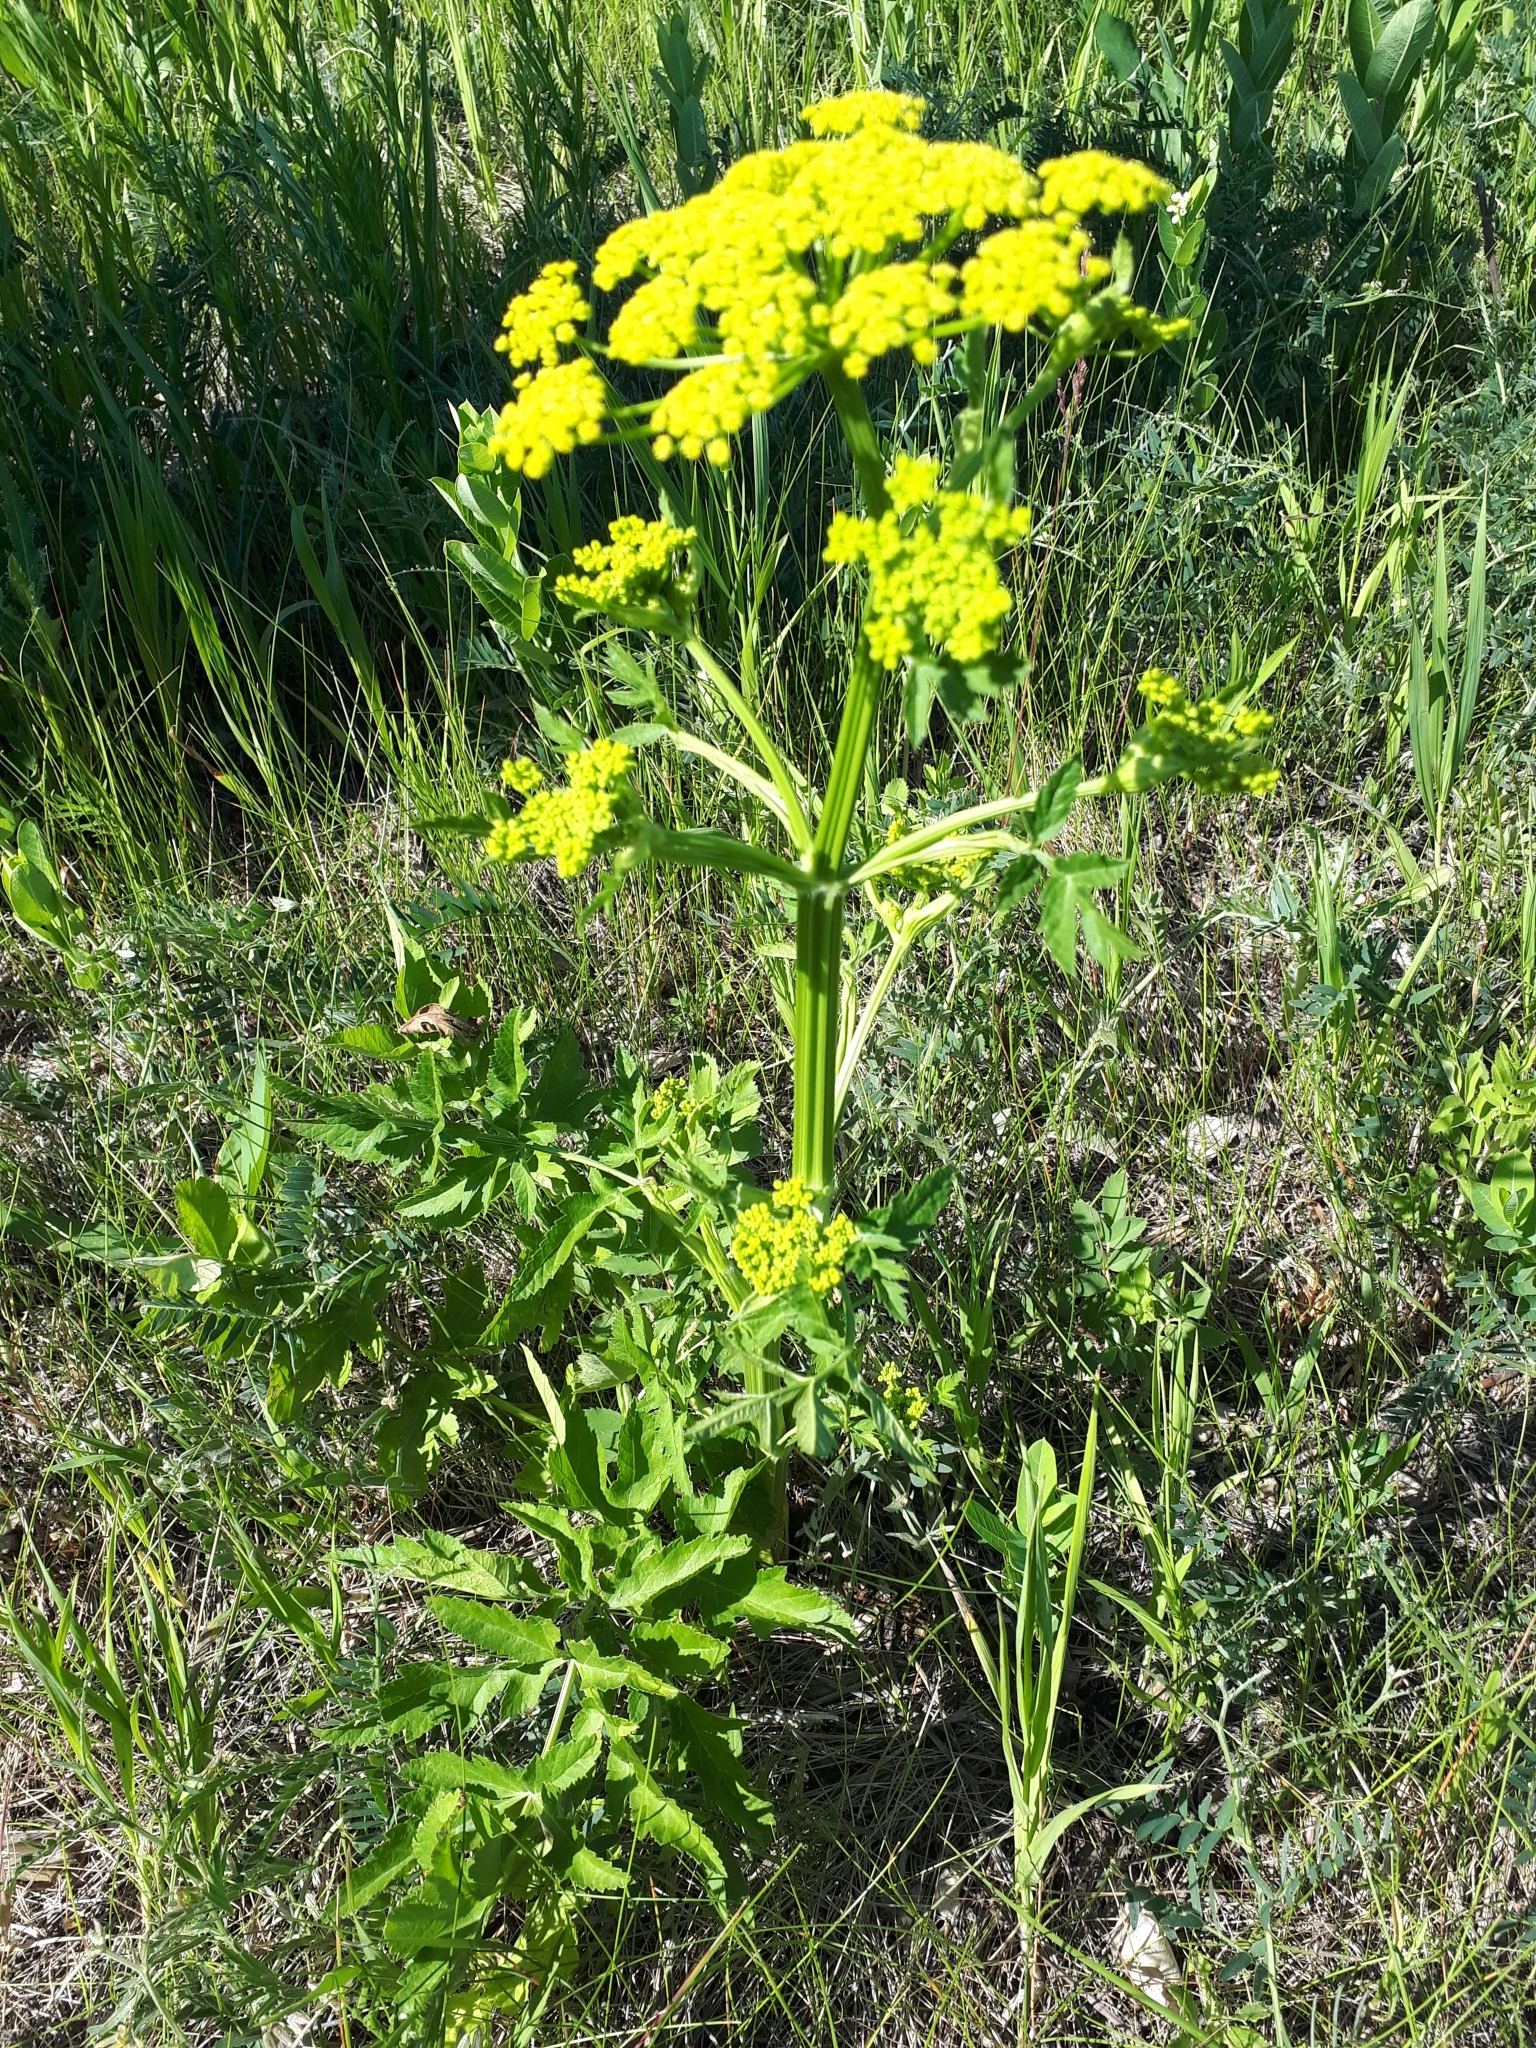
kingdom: Plantae
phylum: Tracheophyta
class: Magnoliopsida
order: Apiales
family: Apiaceae
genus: Pastinaca
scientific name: Pastinaca sativa
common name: Wild parsnip
